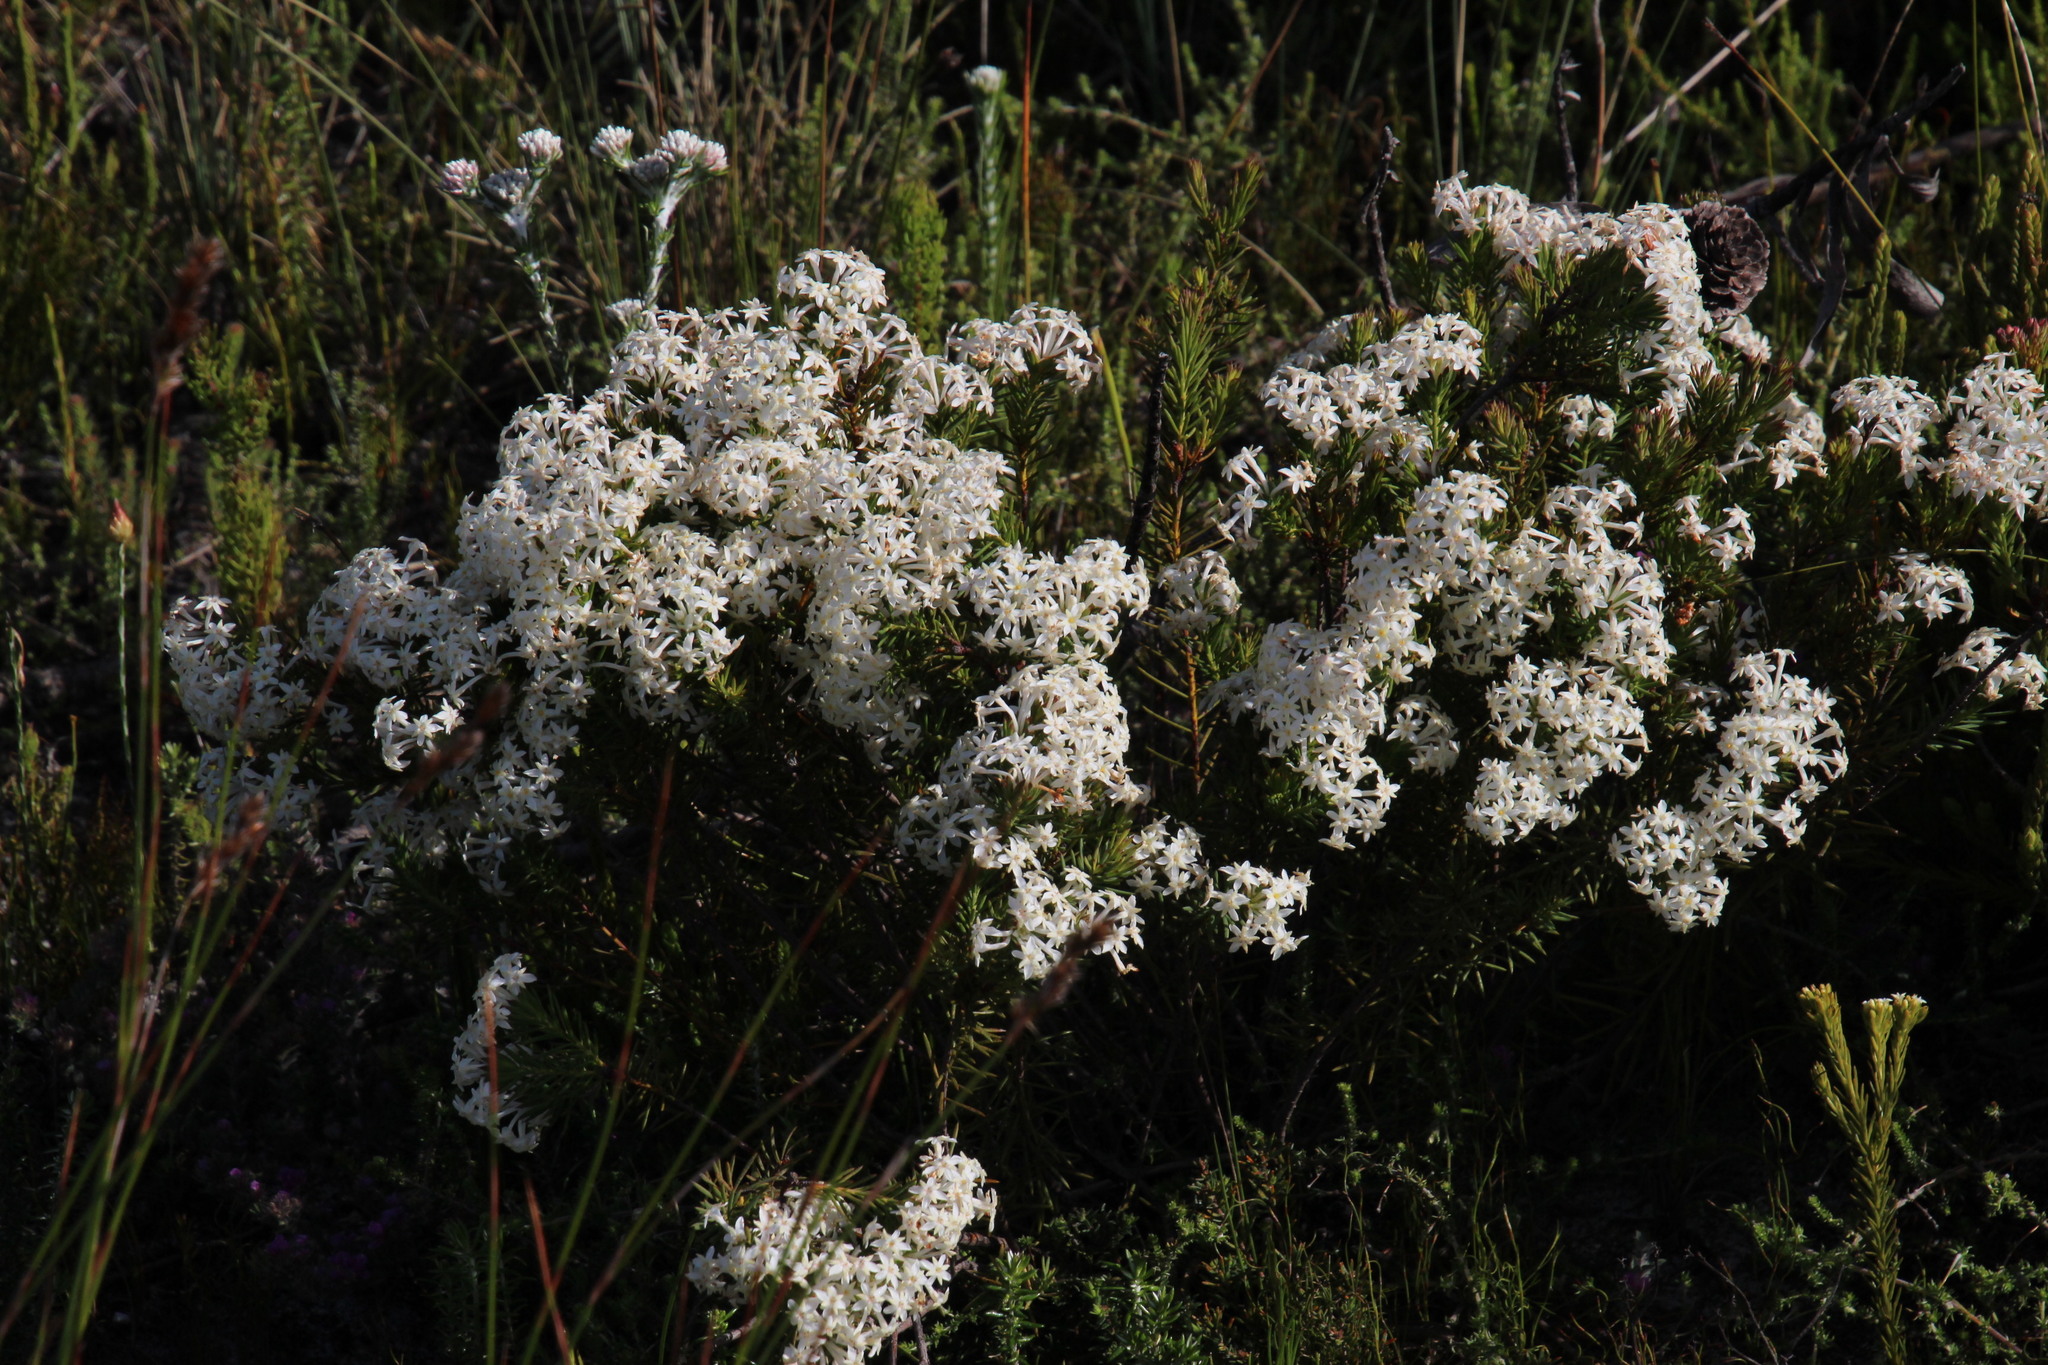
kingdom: Plantae
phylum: Tracheophyta
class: Magnoliopsida
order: Malvales
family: Thymelaeaceae
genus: Gnidia
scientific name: Gnidia pinifolia
